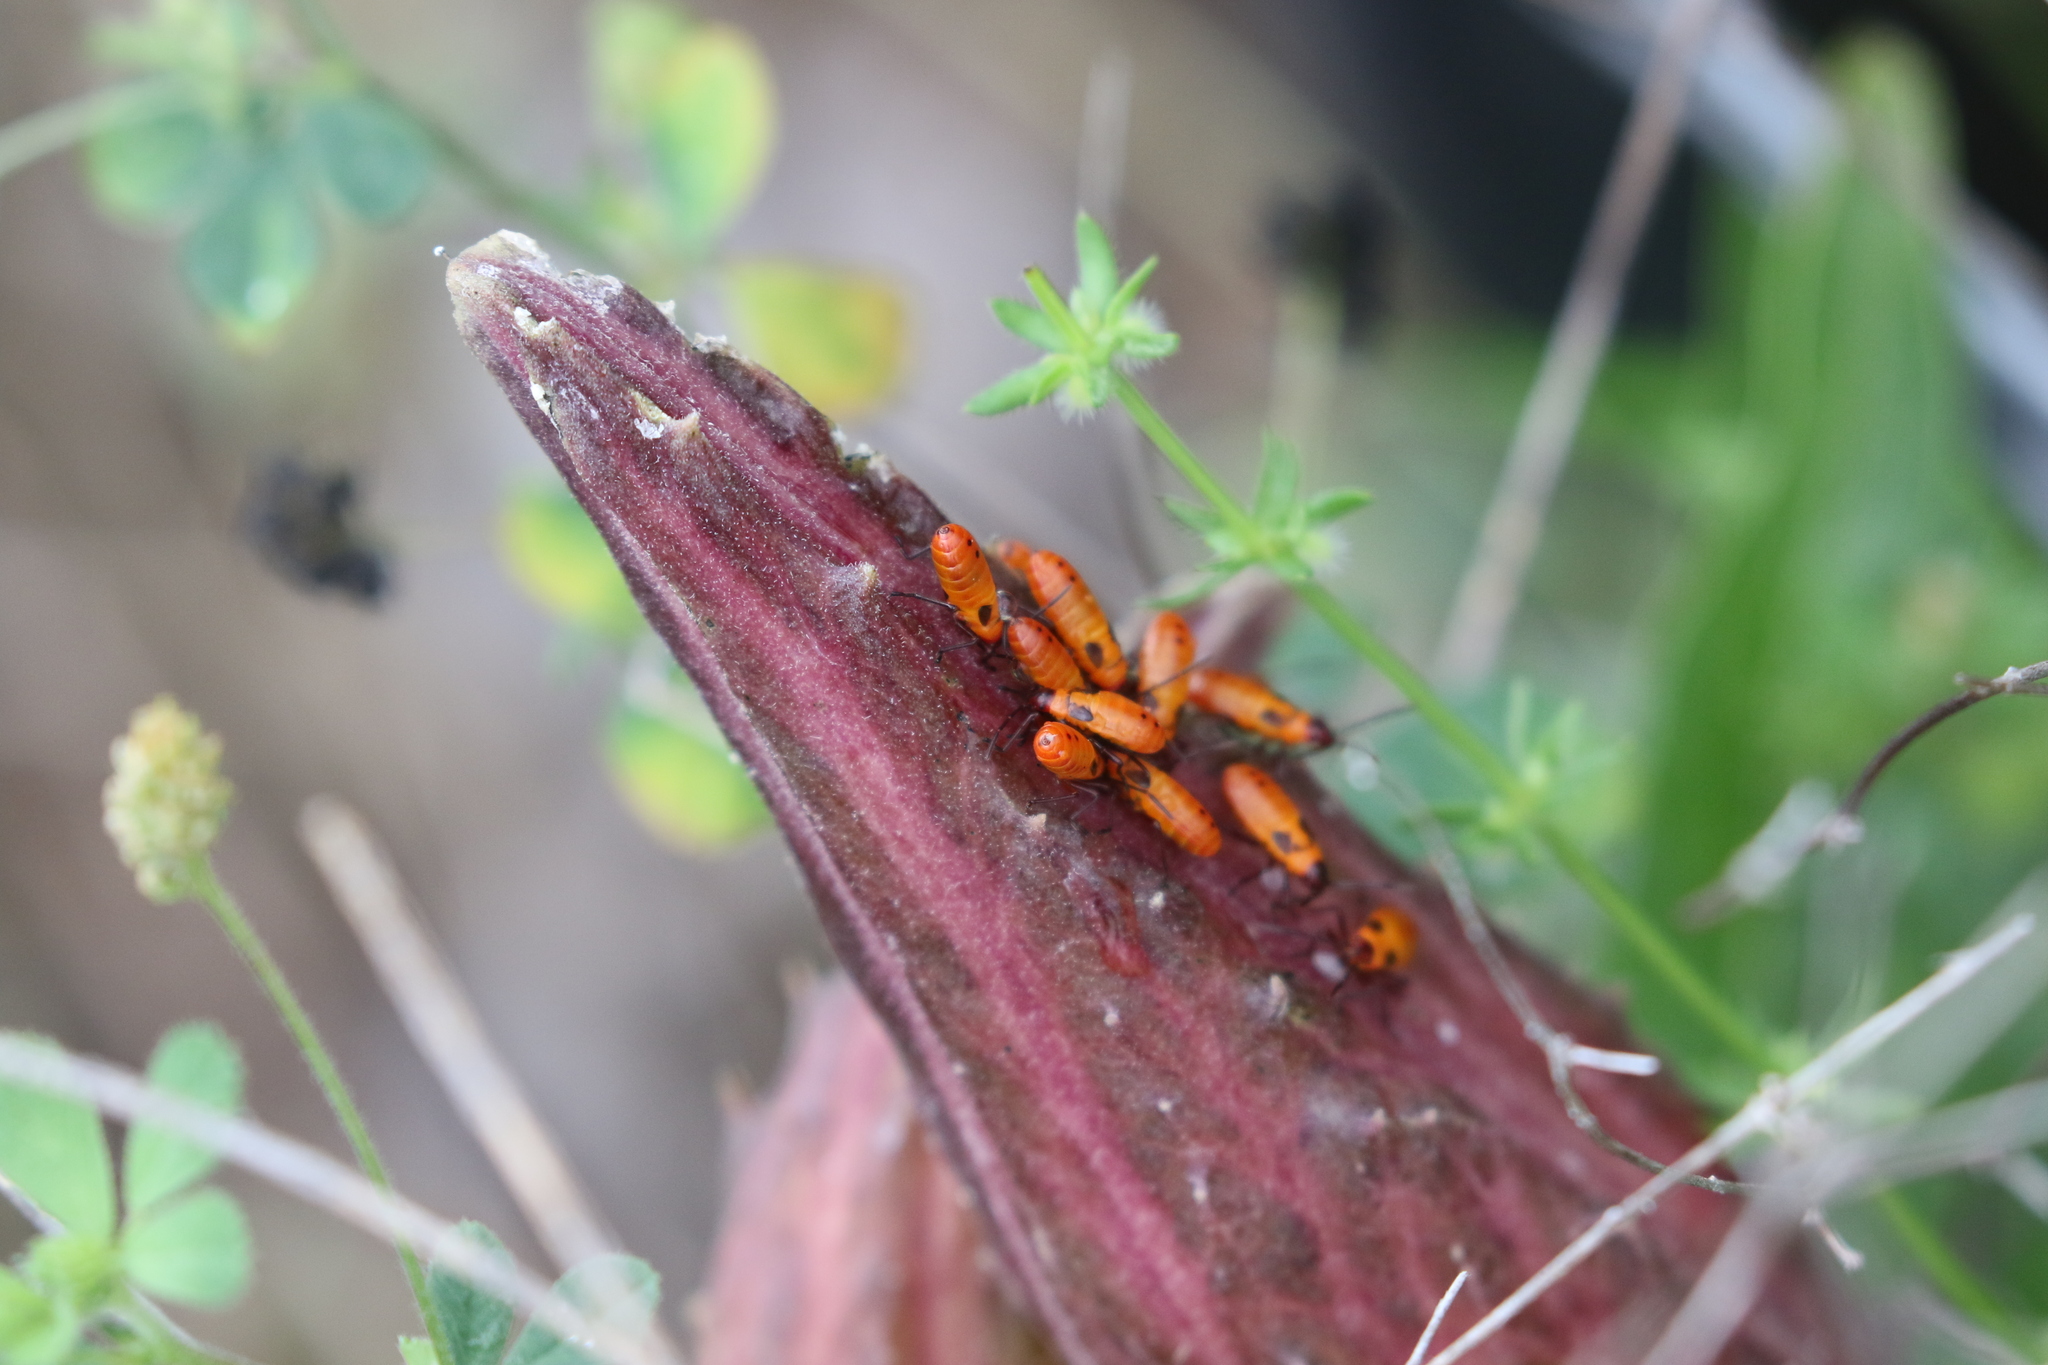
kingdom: Animalia
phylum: Arthropoda
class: Insecta
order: Hemiptera
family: Lygaeidae
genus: Oncopeltus
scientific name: Oncopeltus fasciatus
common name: Large milkweed bug
